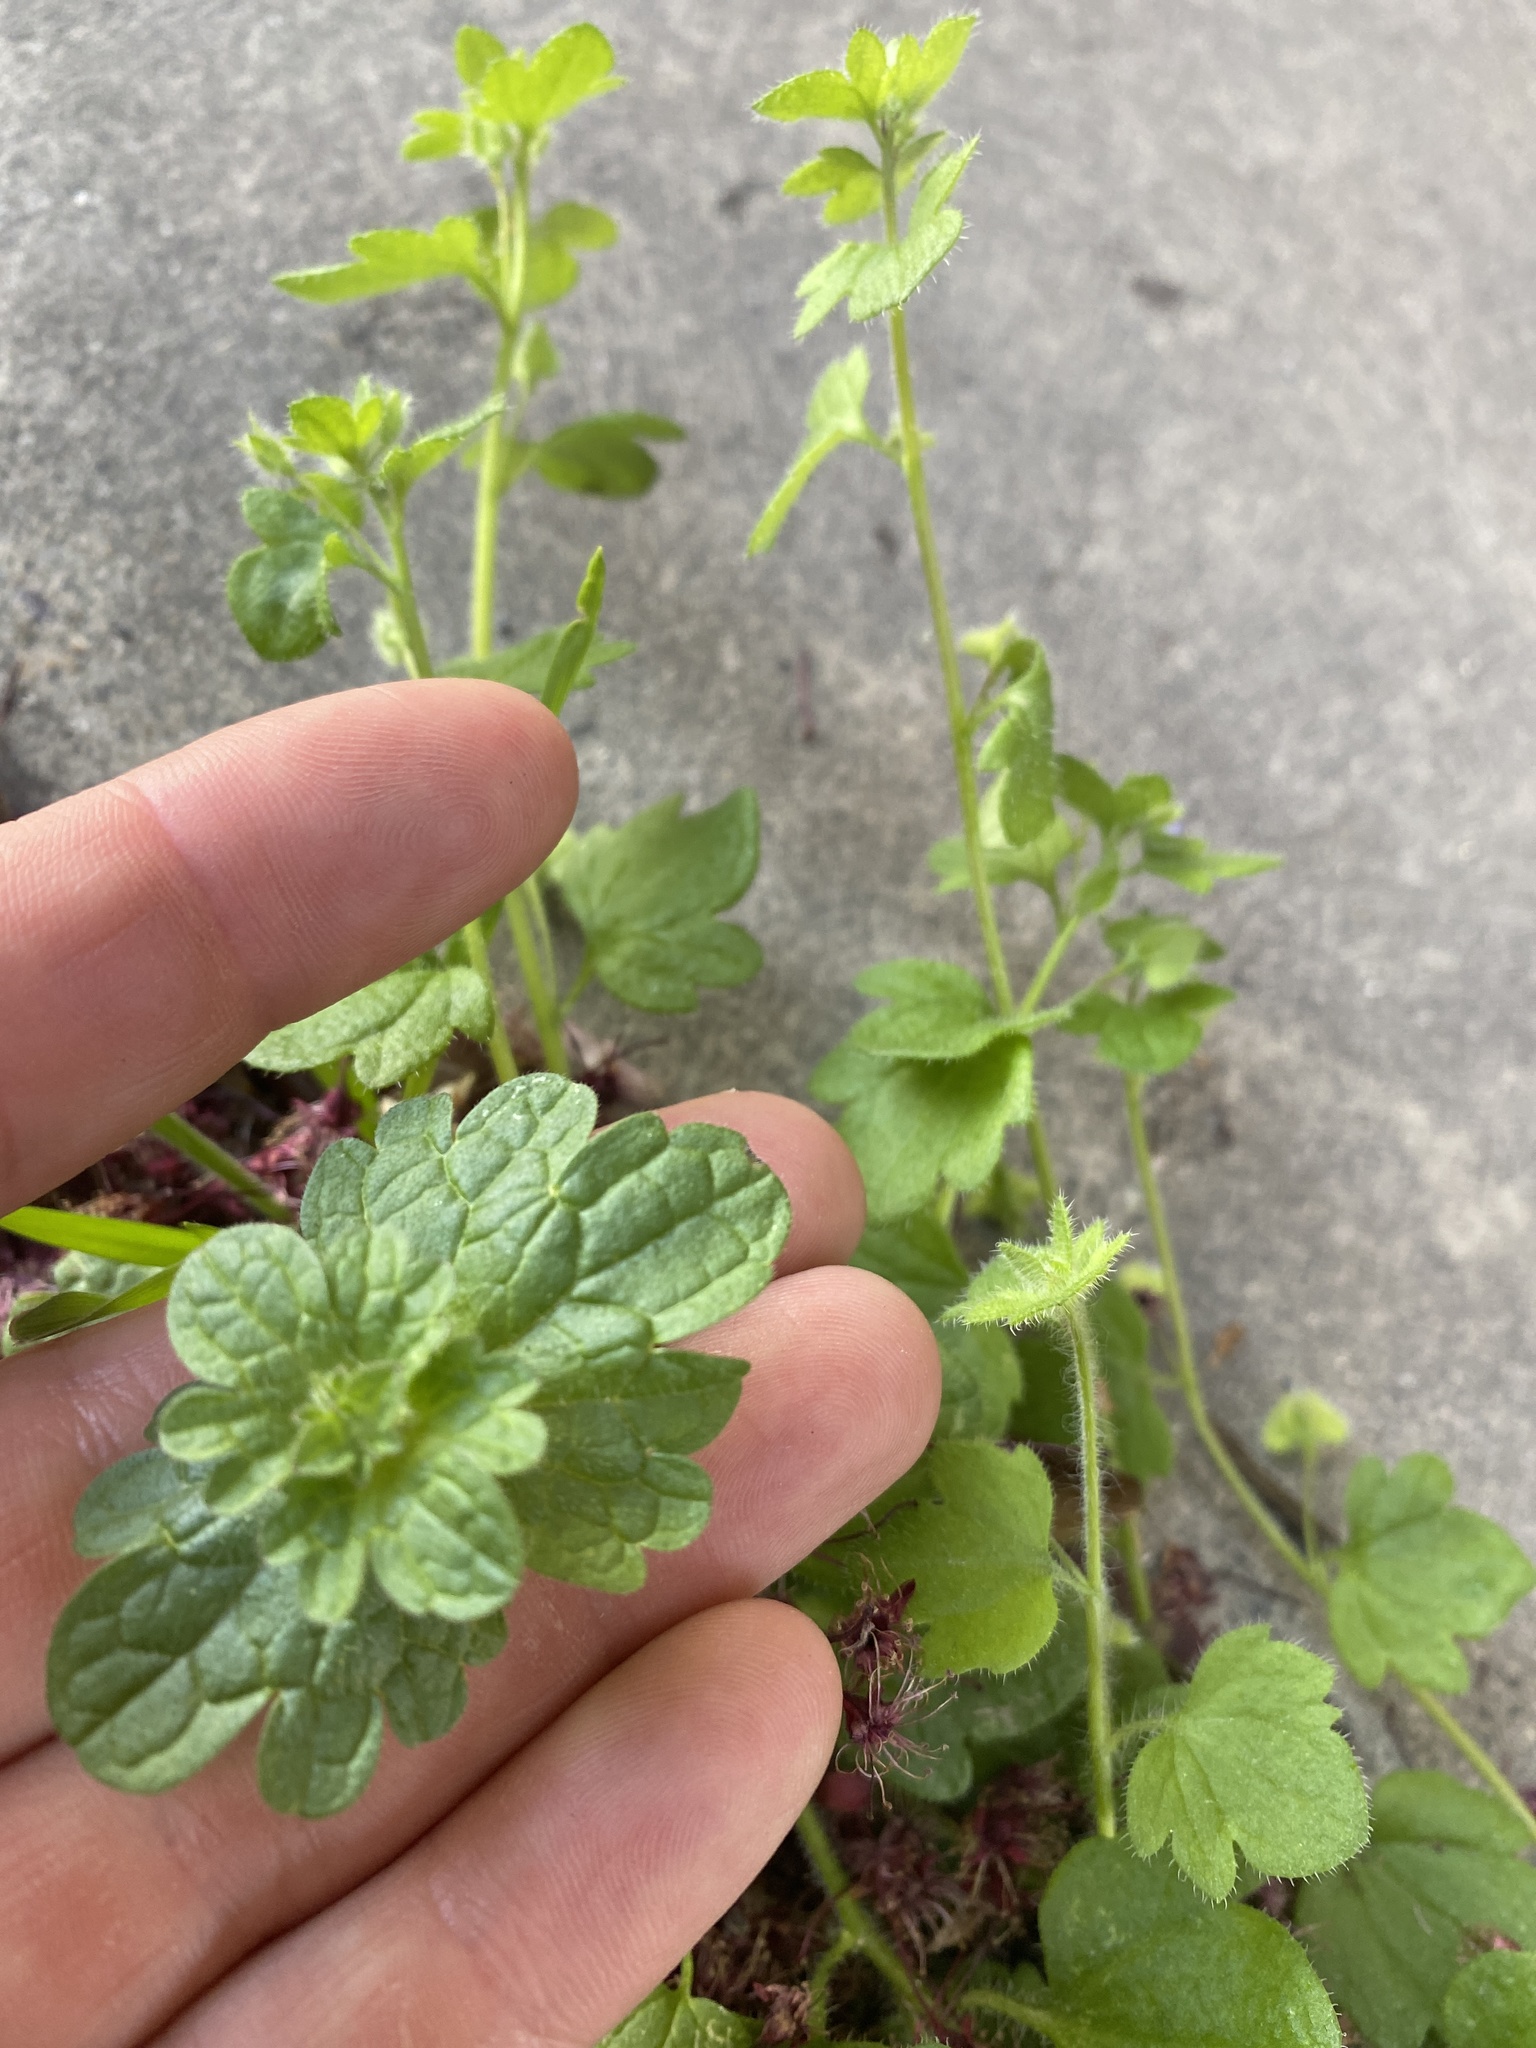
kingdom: Plantae
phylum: Tracheophyta
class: Magnoliopsida
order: Lamiales
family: Lamiaceae
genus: Lamium
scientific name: Lamium amplexicaule
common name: Henbit dead-nettle
